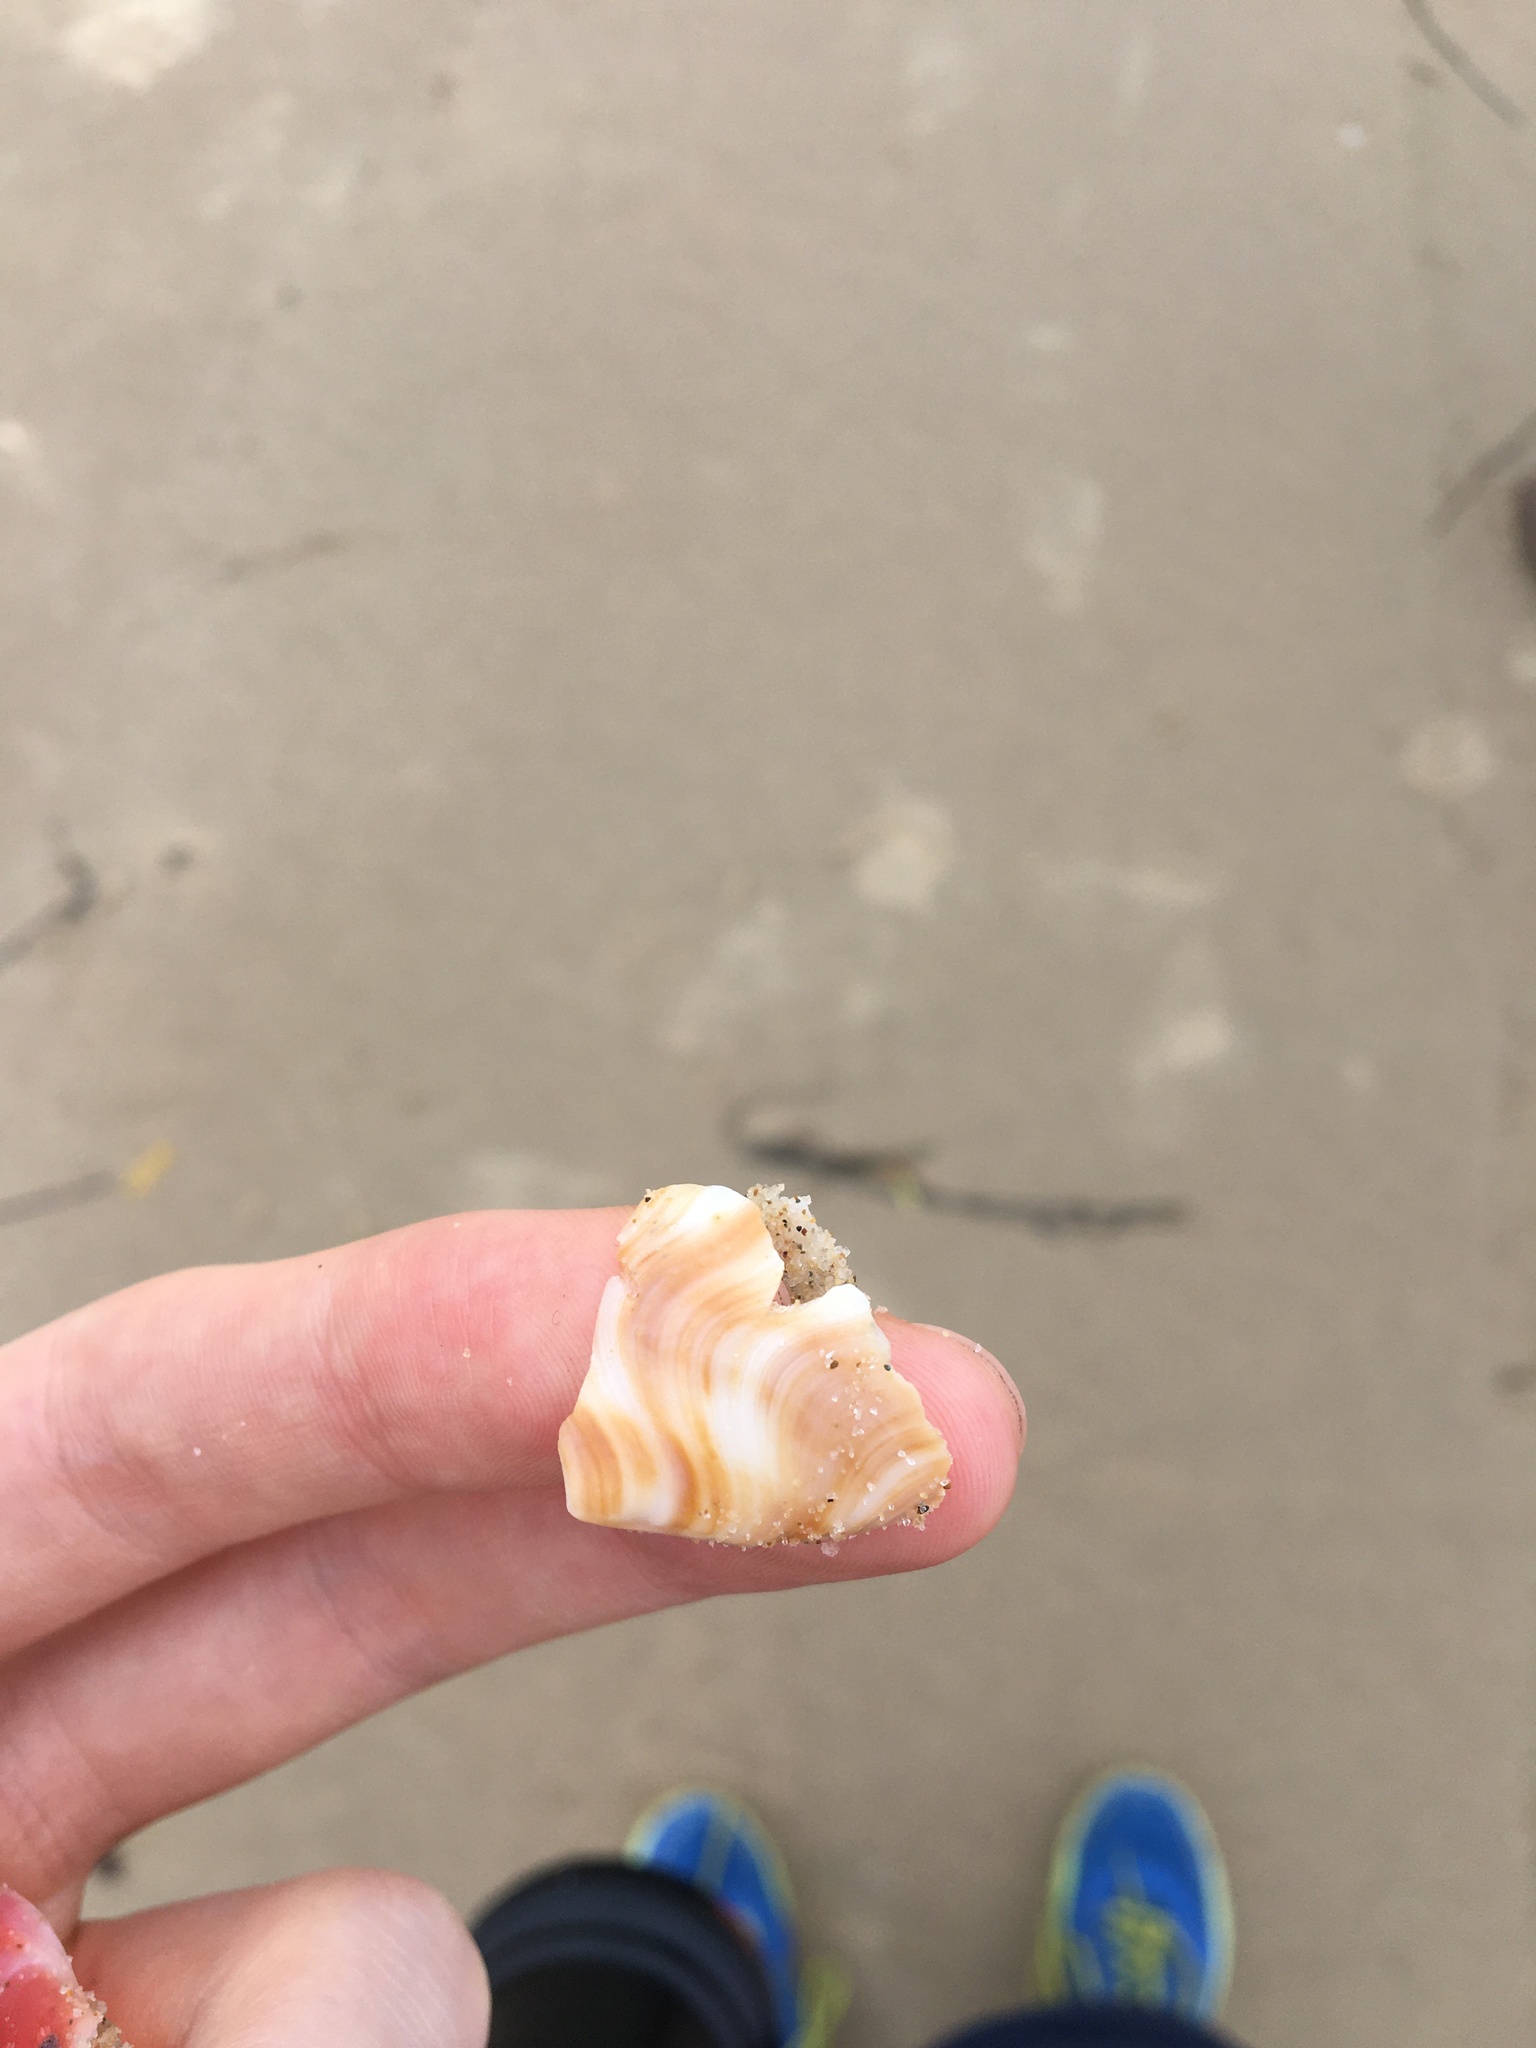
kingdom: Animalia
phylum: Mollusca
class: Gastropoda
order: Littorinimorpha
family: Struthiolariidae
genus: Tylospira
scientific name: Tylospira scutulata
